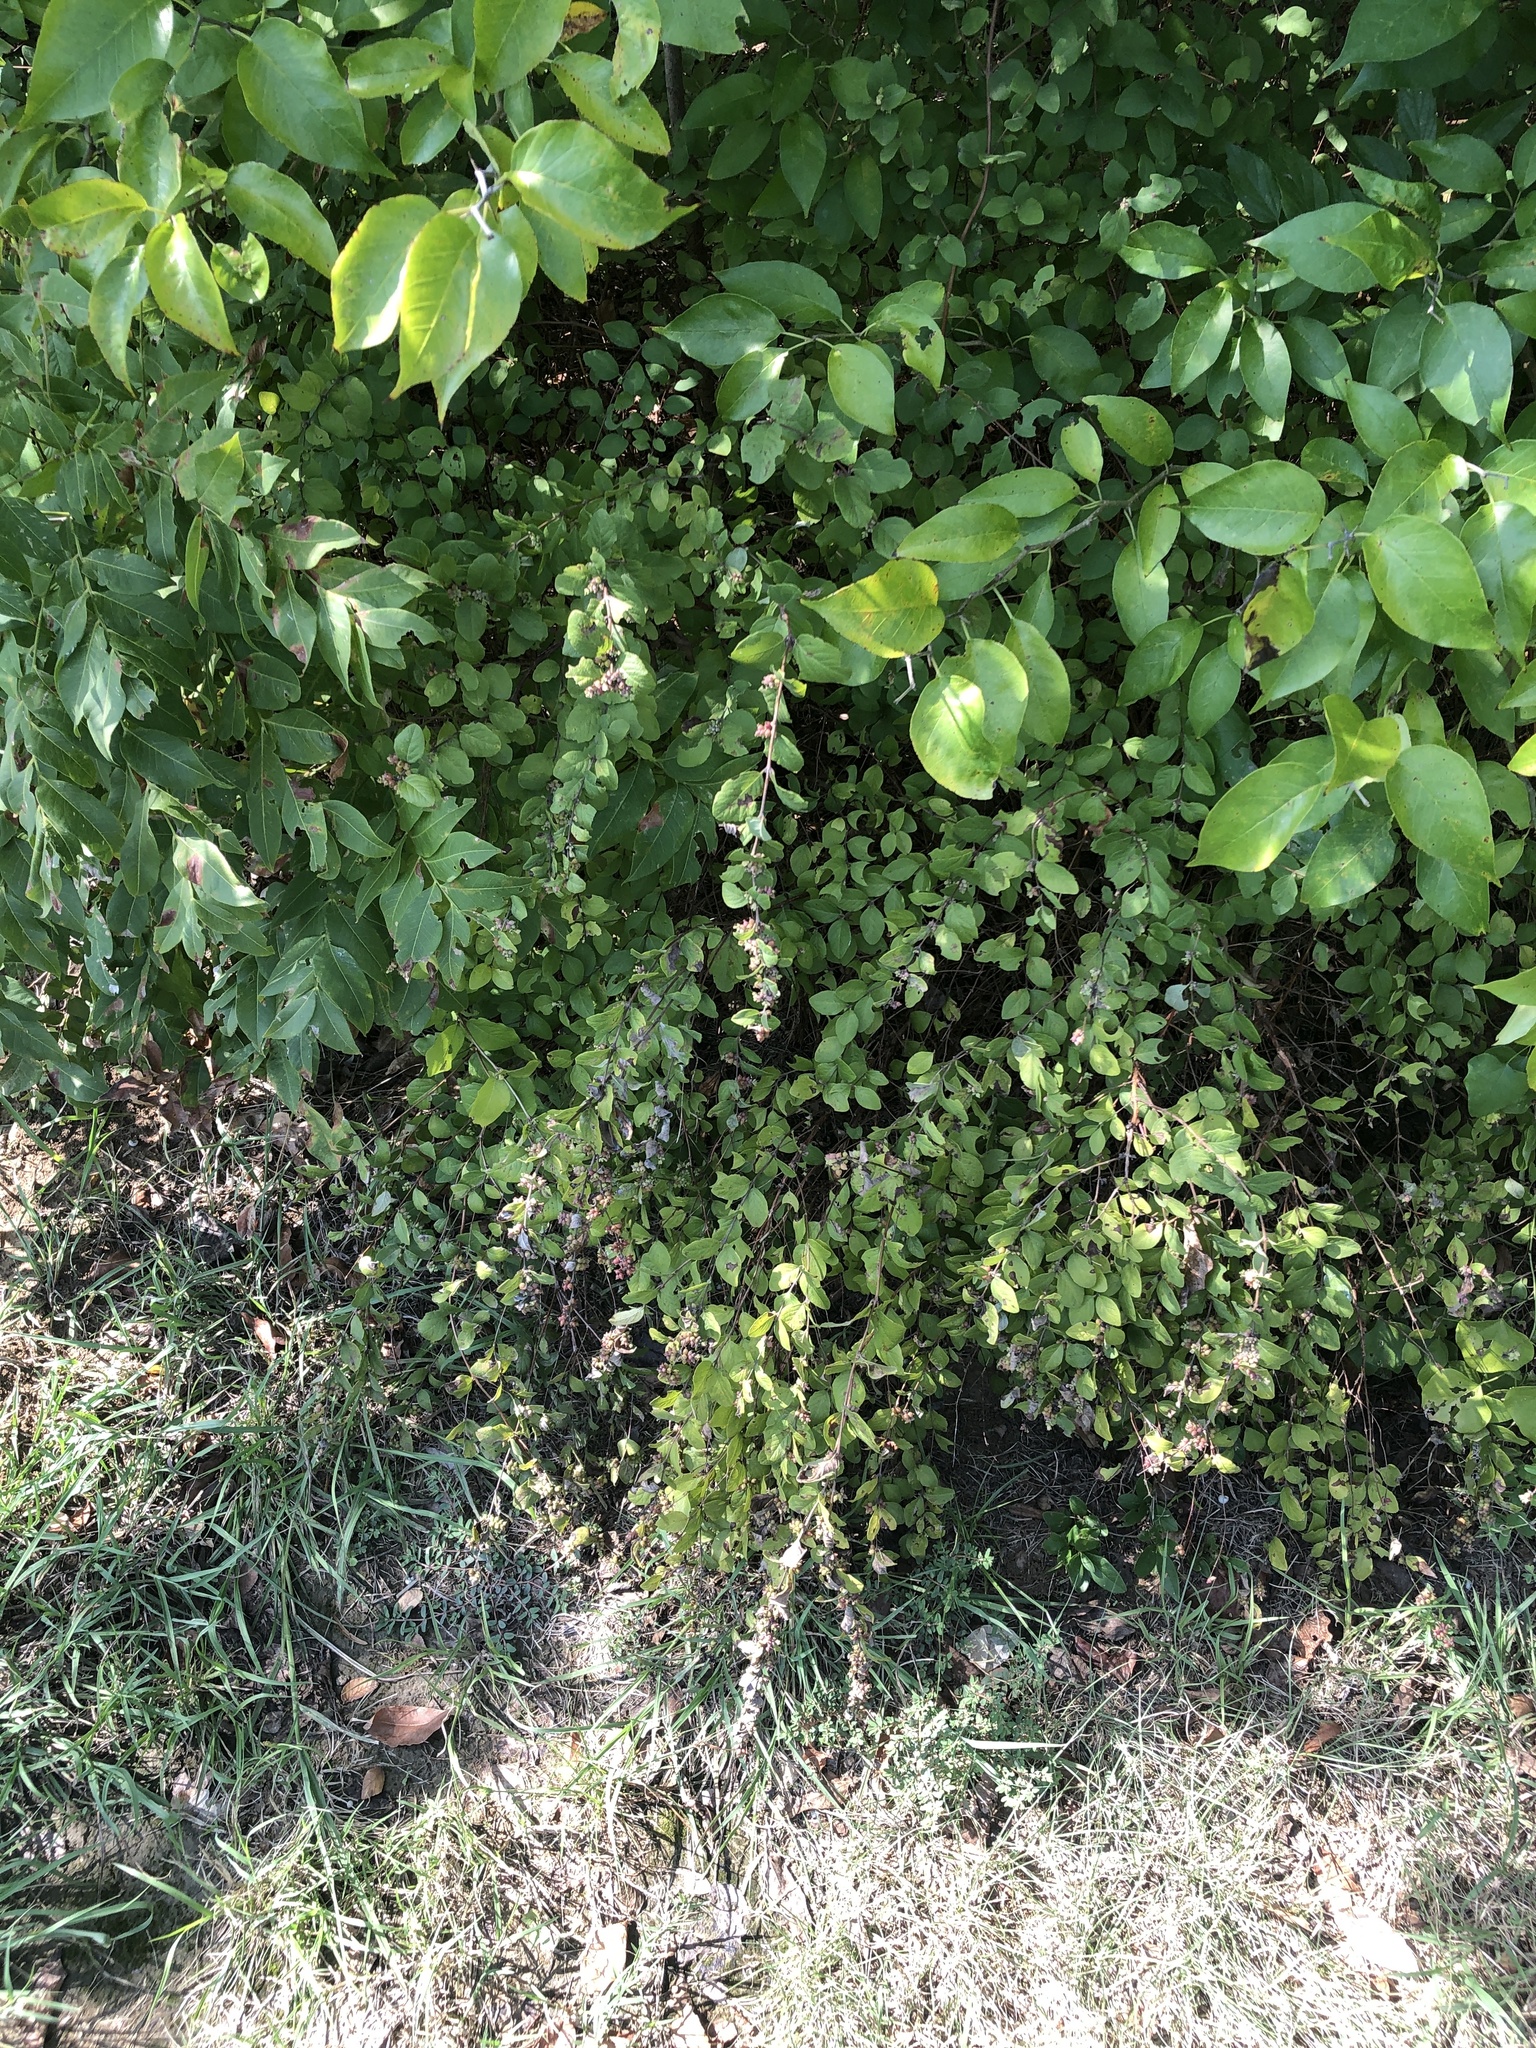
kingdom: Plantae
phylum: Tracheophyta
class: Magnoliopsida
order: Dipsacales
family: Caprifoliaceae
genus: Symphoricarpos
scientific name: Symphoricarpos orbiculatus
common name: Coralberry
